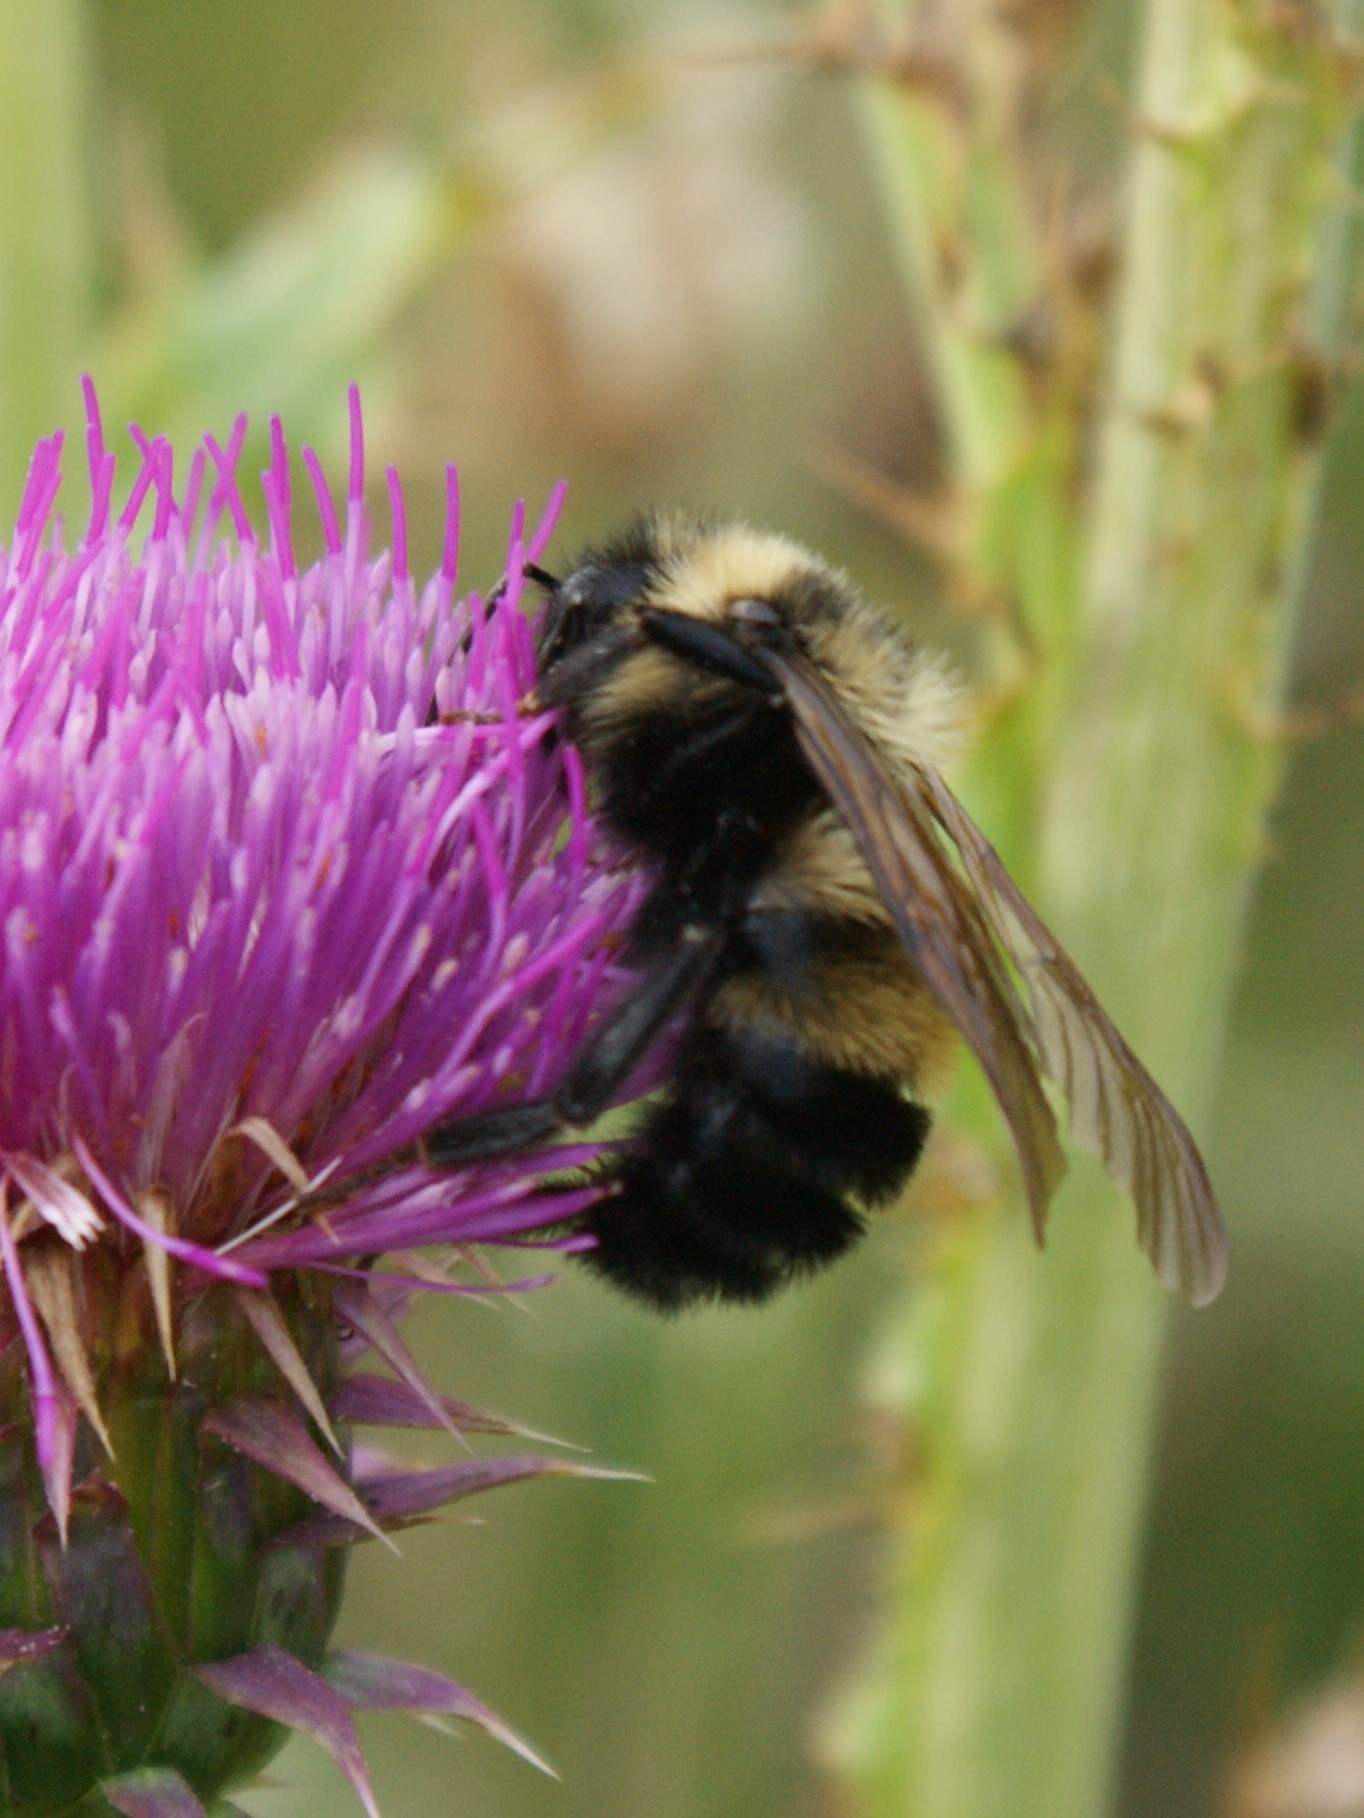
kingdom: Animalia
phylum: Arthropoda
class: Insecta
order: Hymenoptera
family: Apidae
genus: Bombus
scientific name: Bombus citrinus
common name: Lemon cuckoo bumble bee
